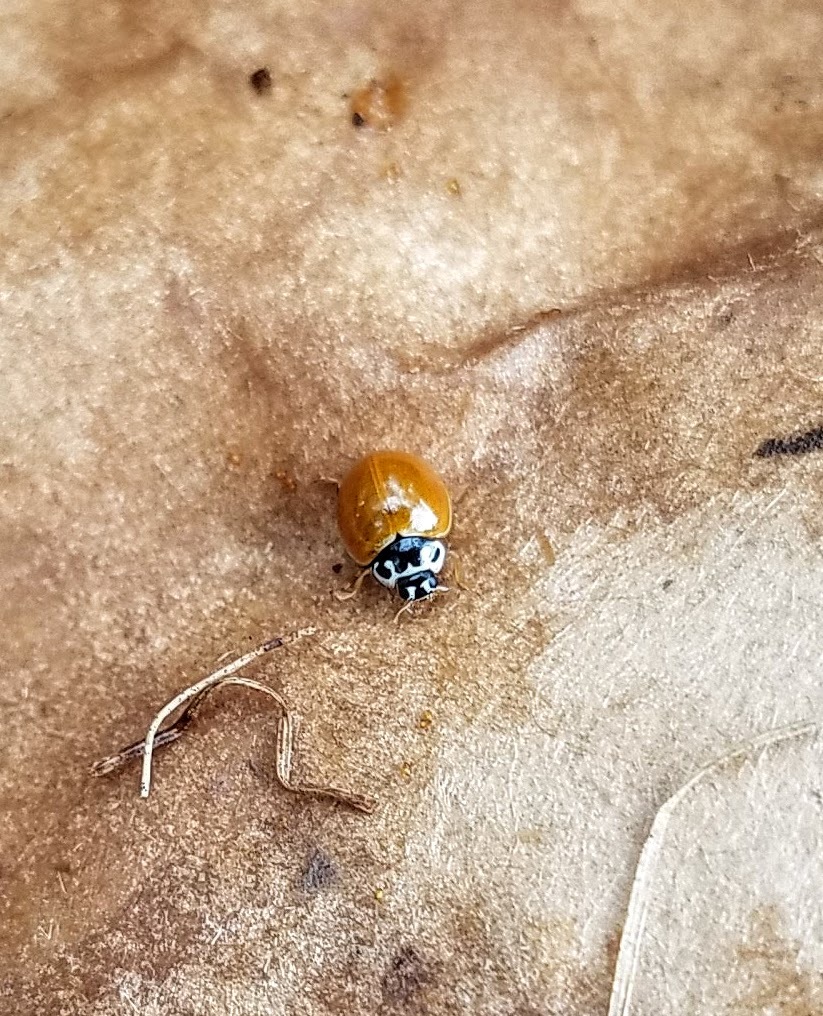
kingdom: Animalia
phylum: Arthropoda
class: Insecta
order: Coleoptera
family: Coccinellidae
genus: Cycloneda
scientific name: Cycloneda munda
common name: Polished lady beetle
